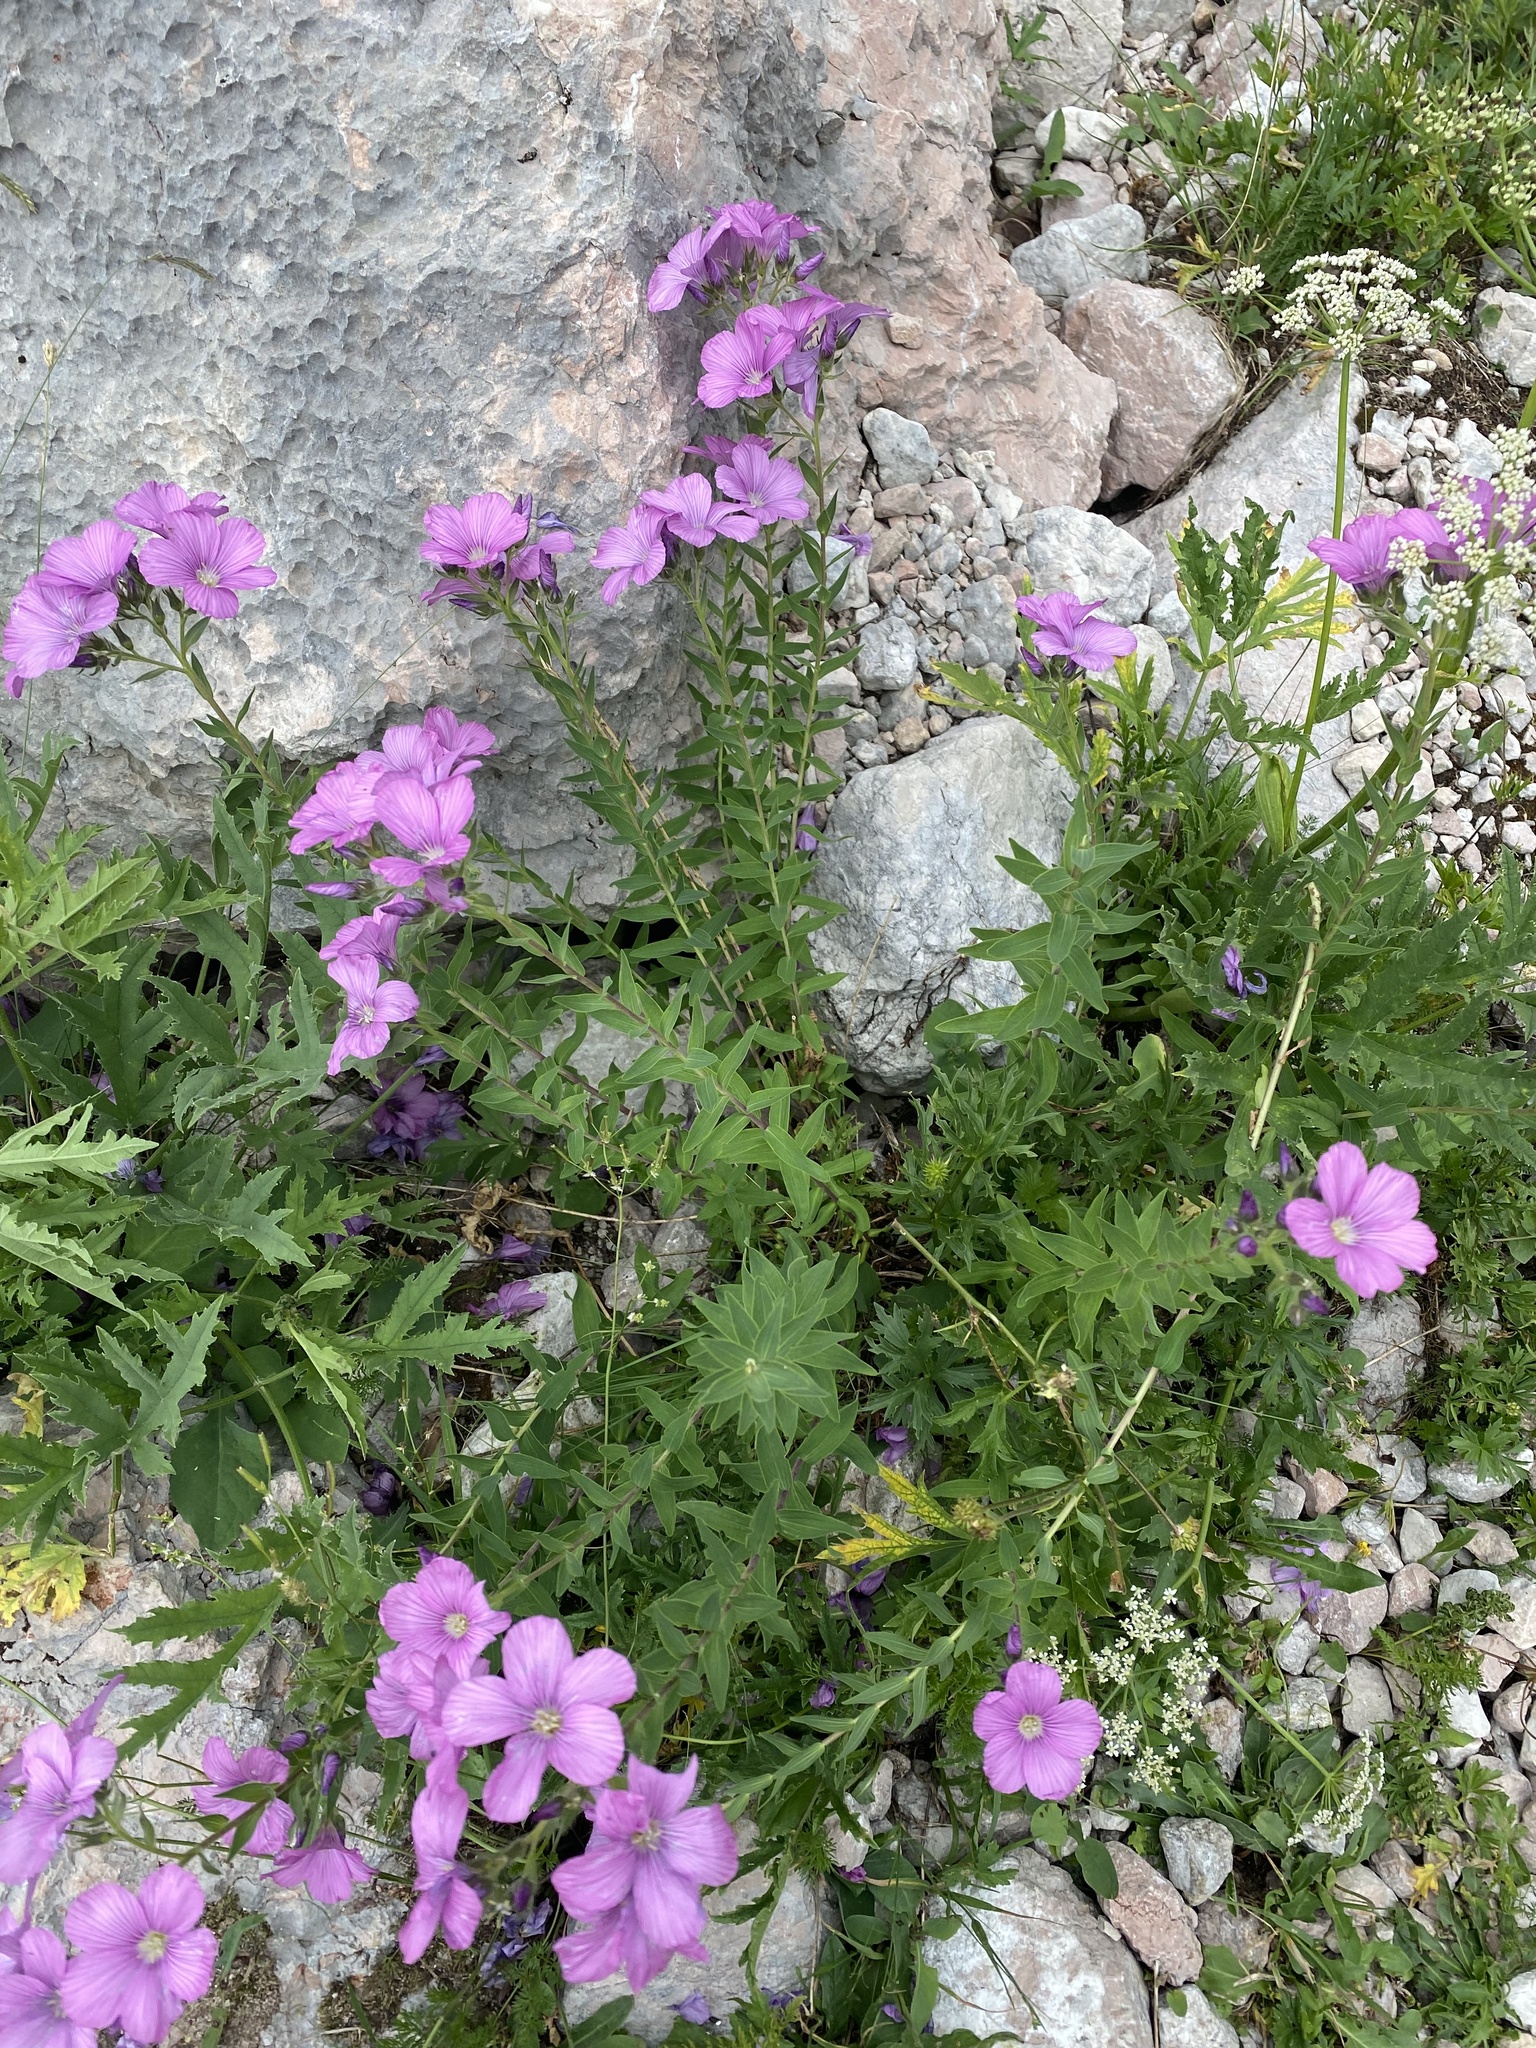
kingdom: Plantae
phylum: Tracheophyta
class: Magnoliopsida
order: Malpighiales
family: Linaceae
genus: Linum
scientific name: Linum hypericifolium
